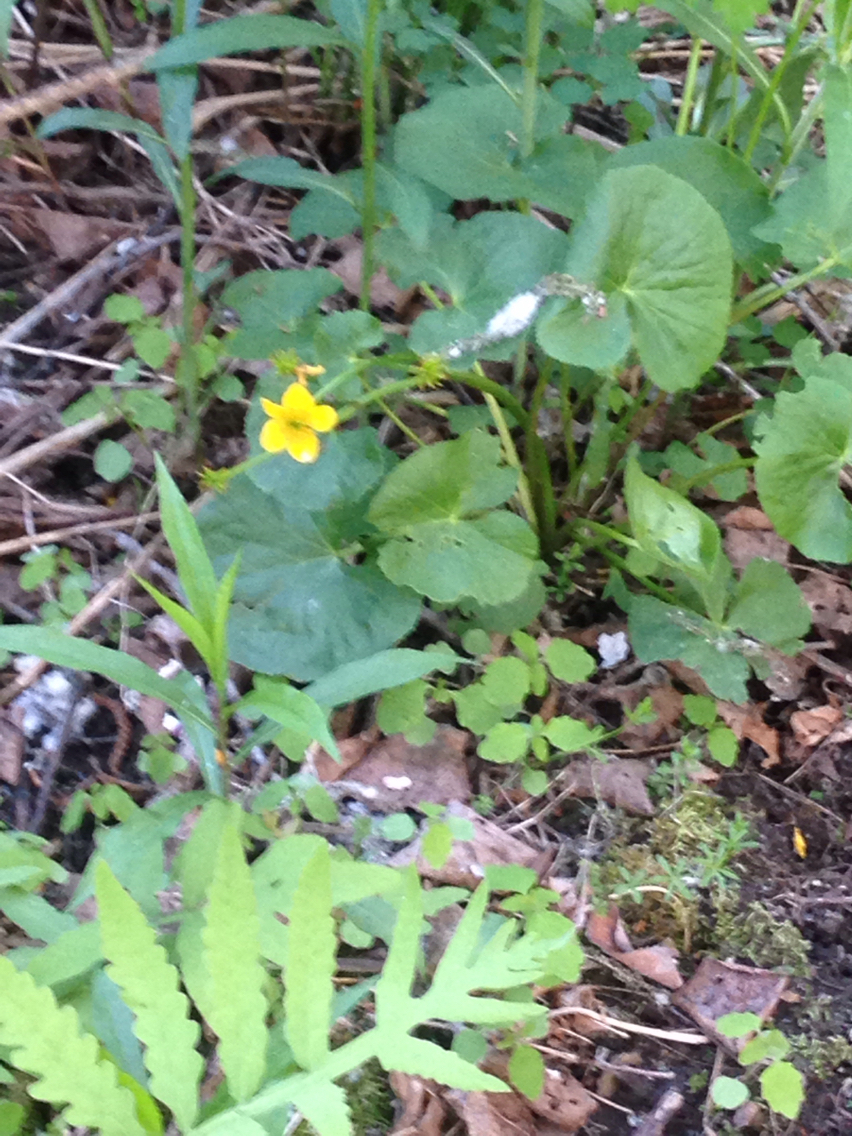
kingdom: Plantae
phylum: Tracheophyta
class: Magnoliopsida
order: Ranunculales
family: Ranunculaceae
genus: Caltha
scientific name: Caltha palustris
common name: Marsh marigold
